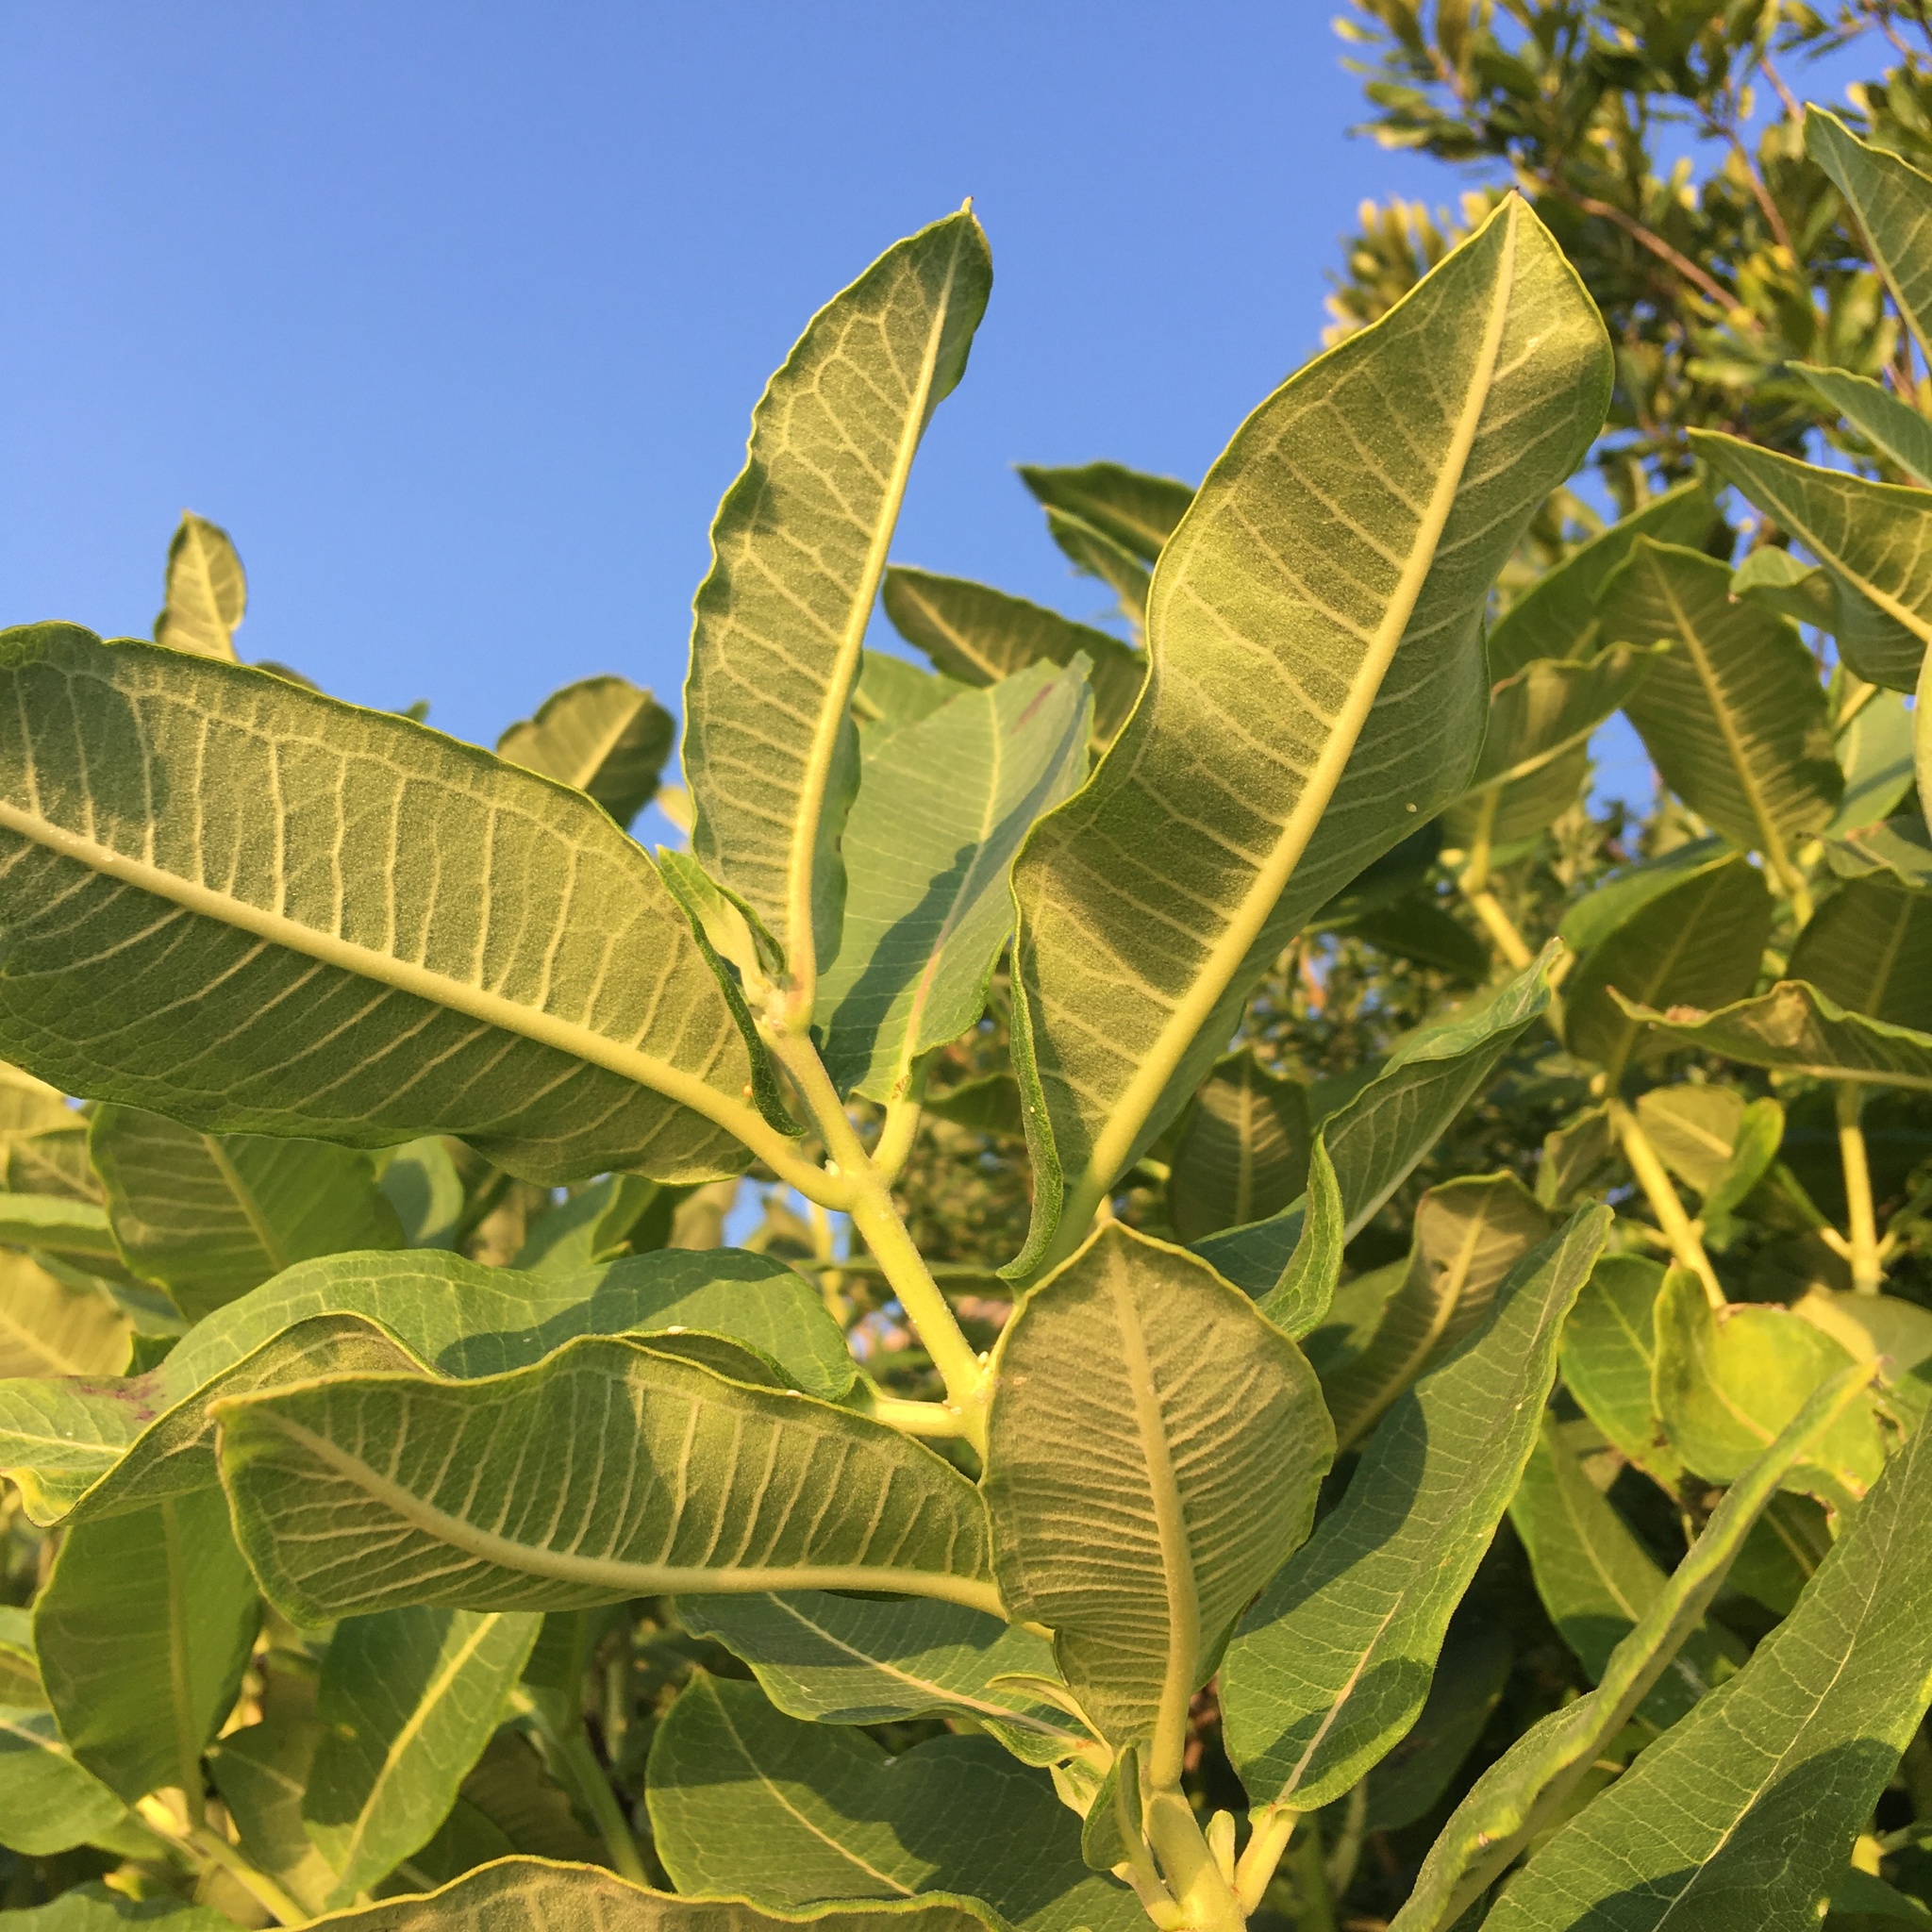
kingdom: Plantae
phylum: Tracheophyta
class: Magnoliopsida
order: Gentianales
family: Apocynaceae
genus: Asclepias
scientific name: Asclepias syriaca
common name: Common milkweed
